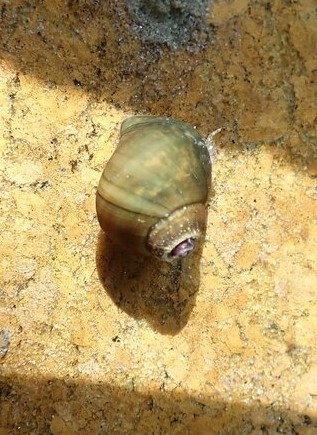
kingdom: Animalia
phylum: Mollusca
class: Gastropoda
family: Pleuroceridae
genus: Leptoxis
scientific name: Leptoxis carinata
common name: Crested mudalia
